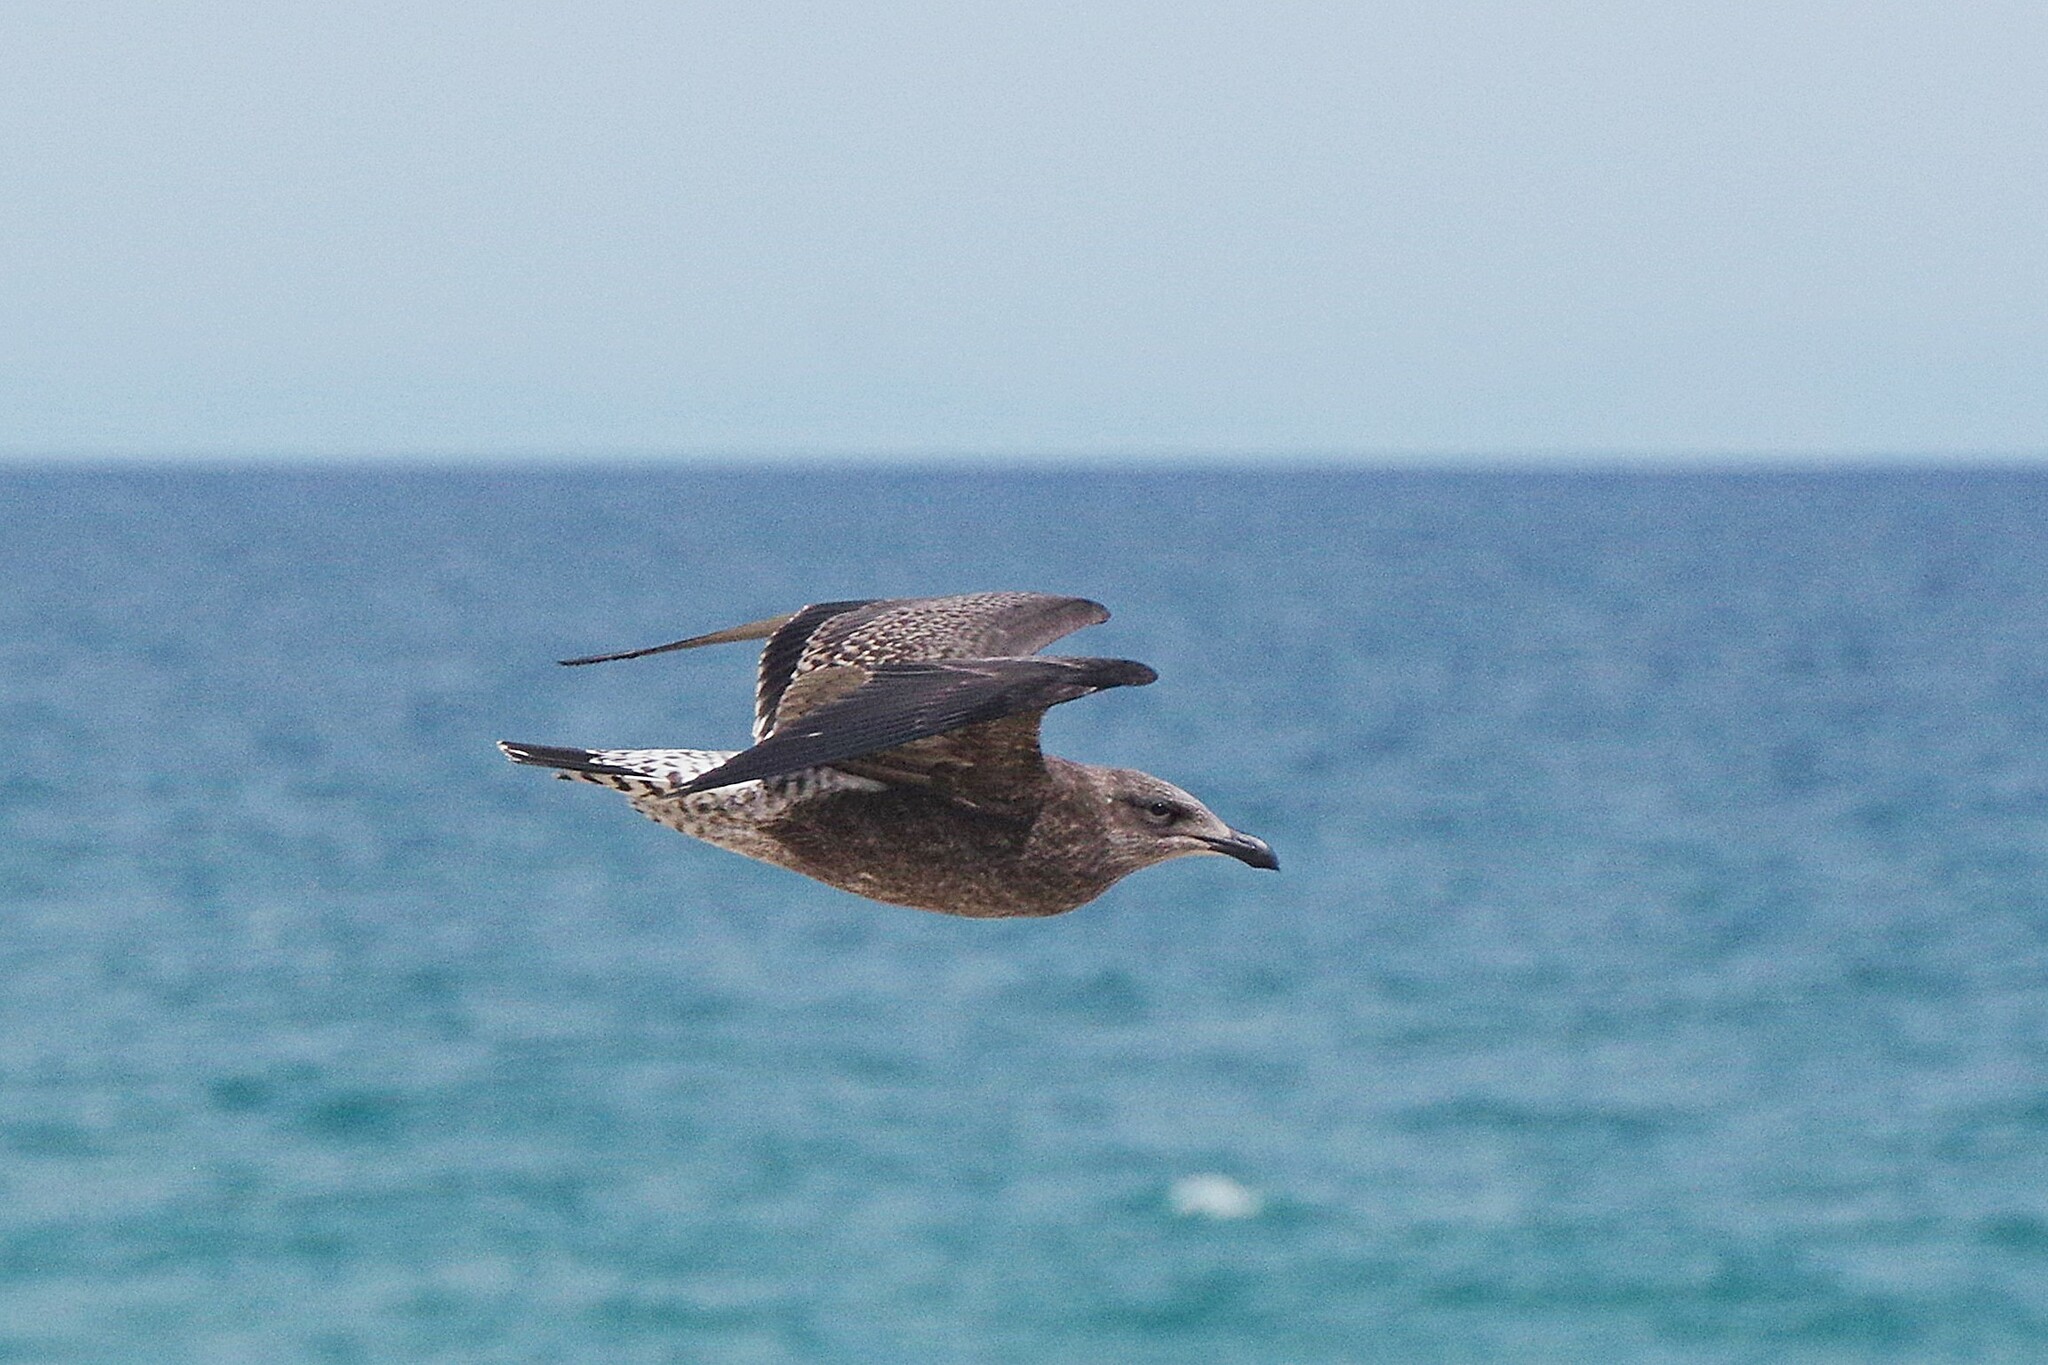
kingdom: Animalia
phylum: Chordata
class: Aves
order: Charadriiformes
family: Laridae
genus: Larus
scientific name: Larus dominicanus
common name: Kelp gull
